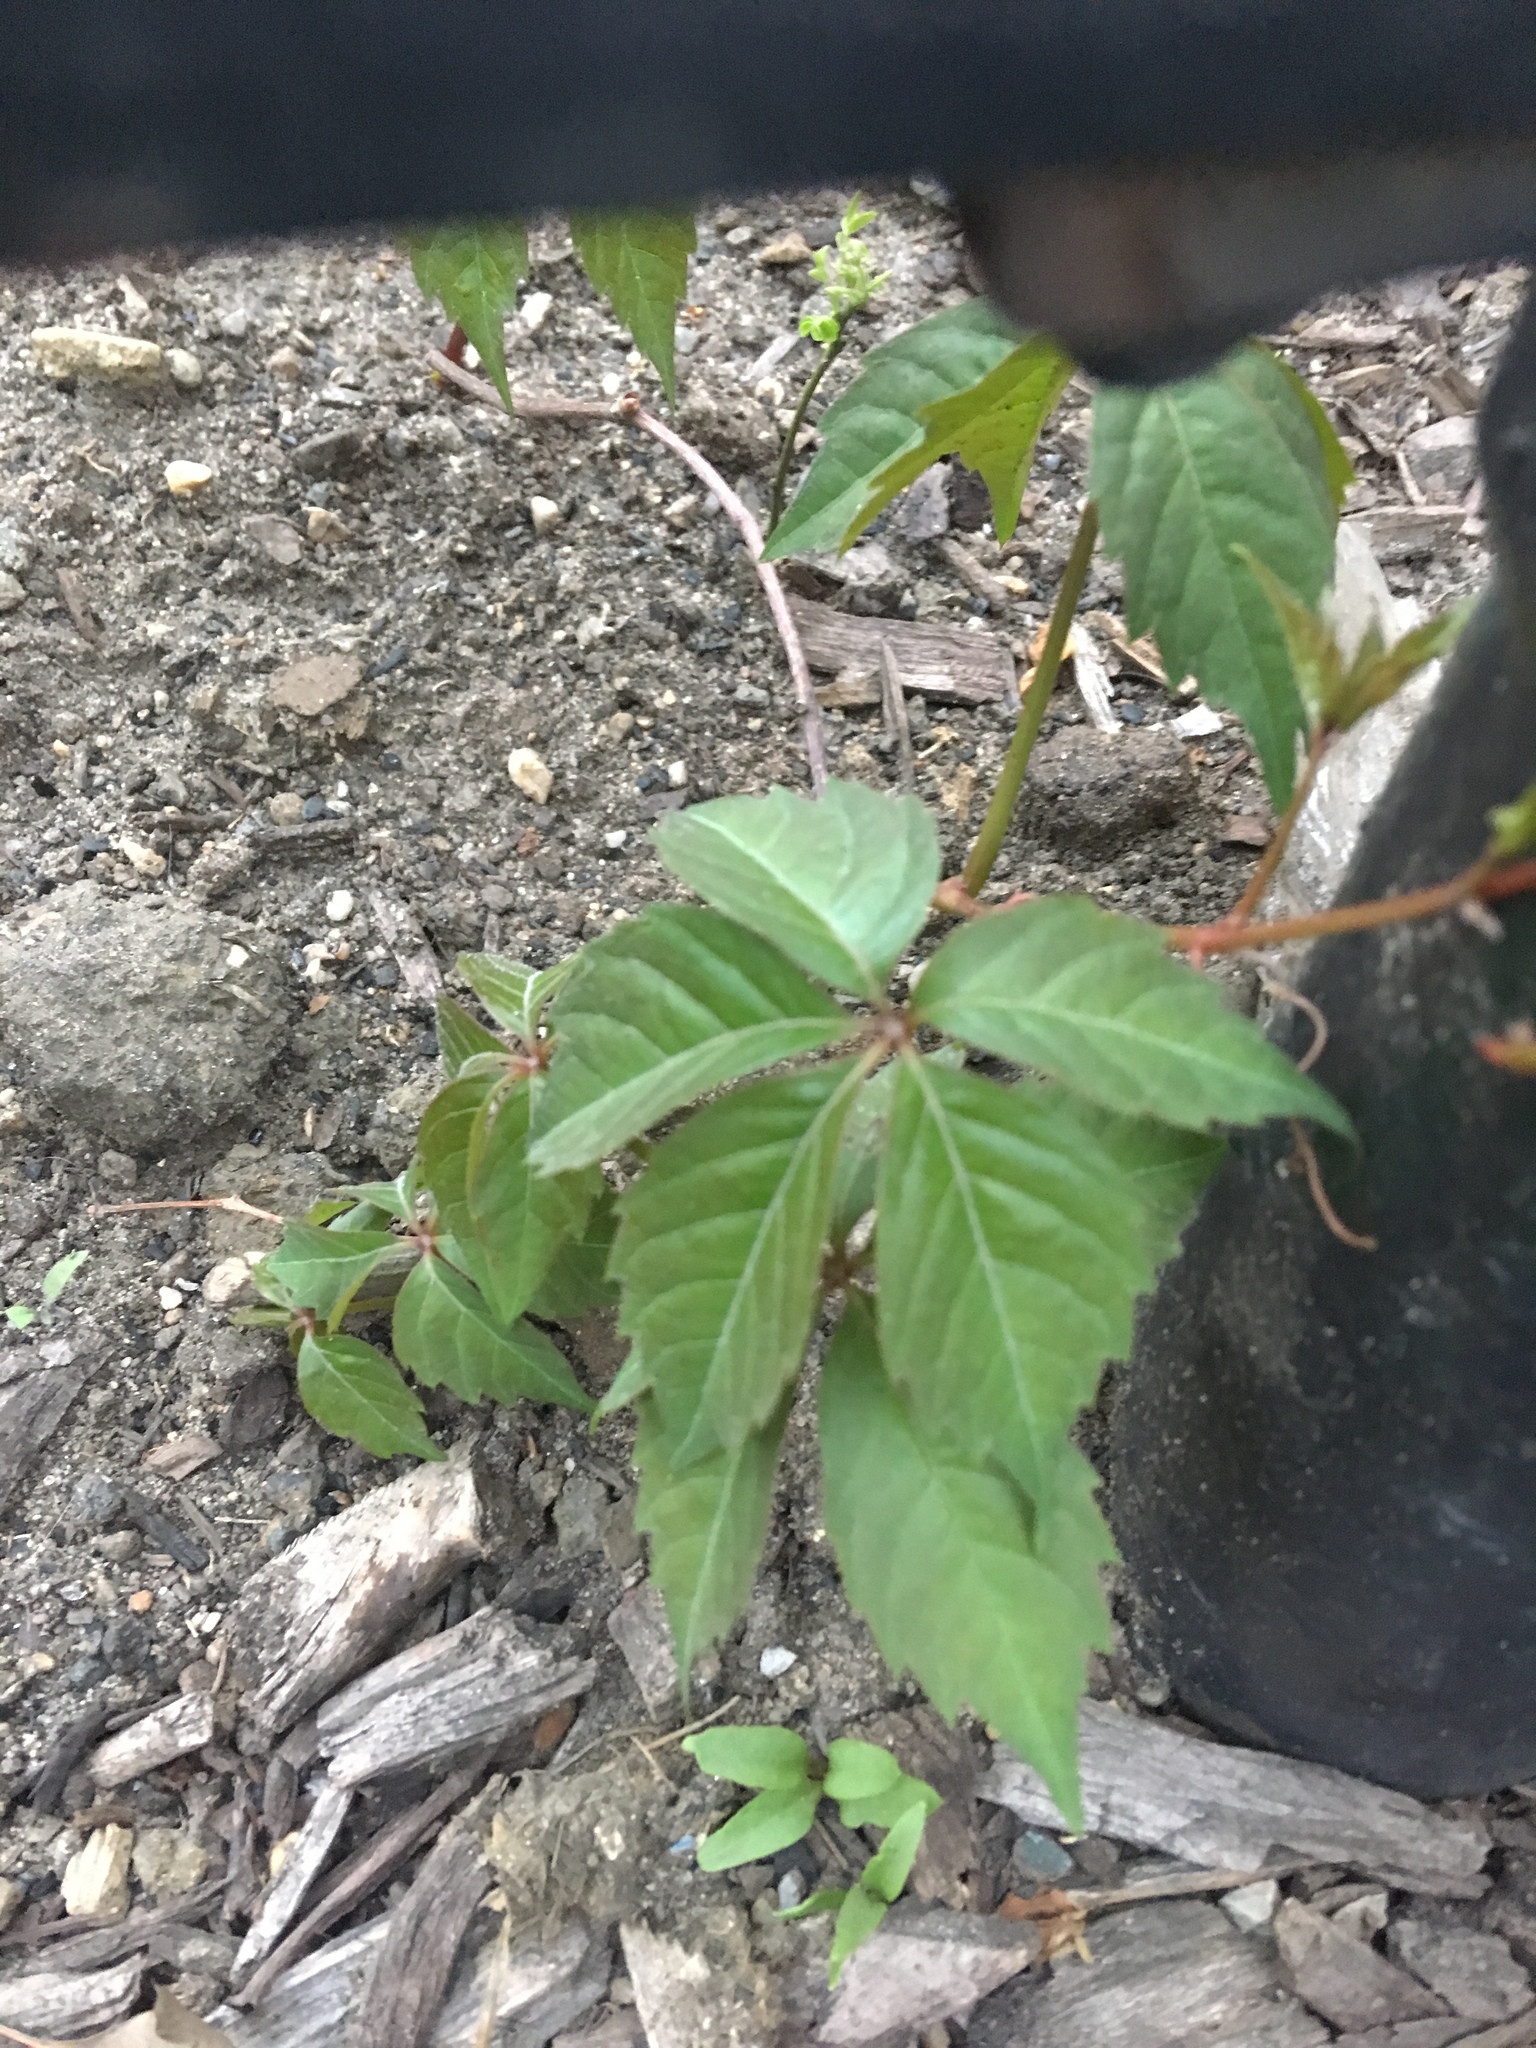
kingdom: Plantae
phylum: Tracheophyta
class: Magnoliopsida
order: Vitales
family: Vitaceae
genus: Parthenocissus
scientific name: Parthenocissus quinquefolia
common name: Virginia-creeper
